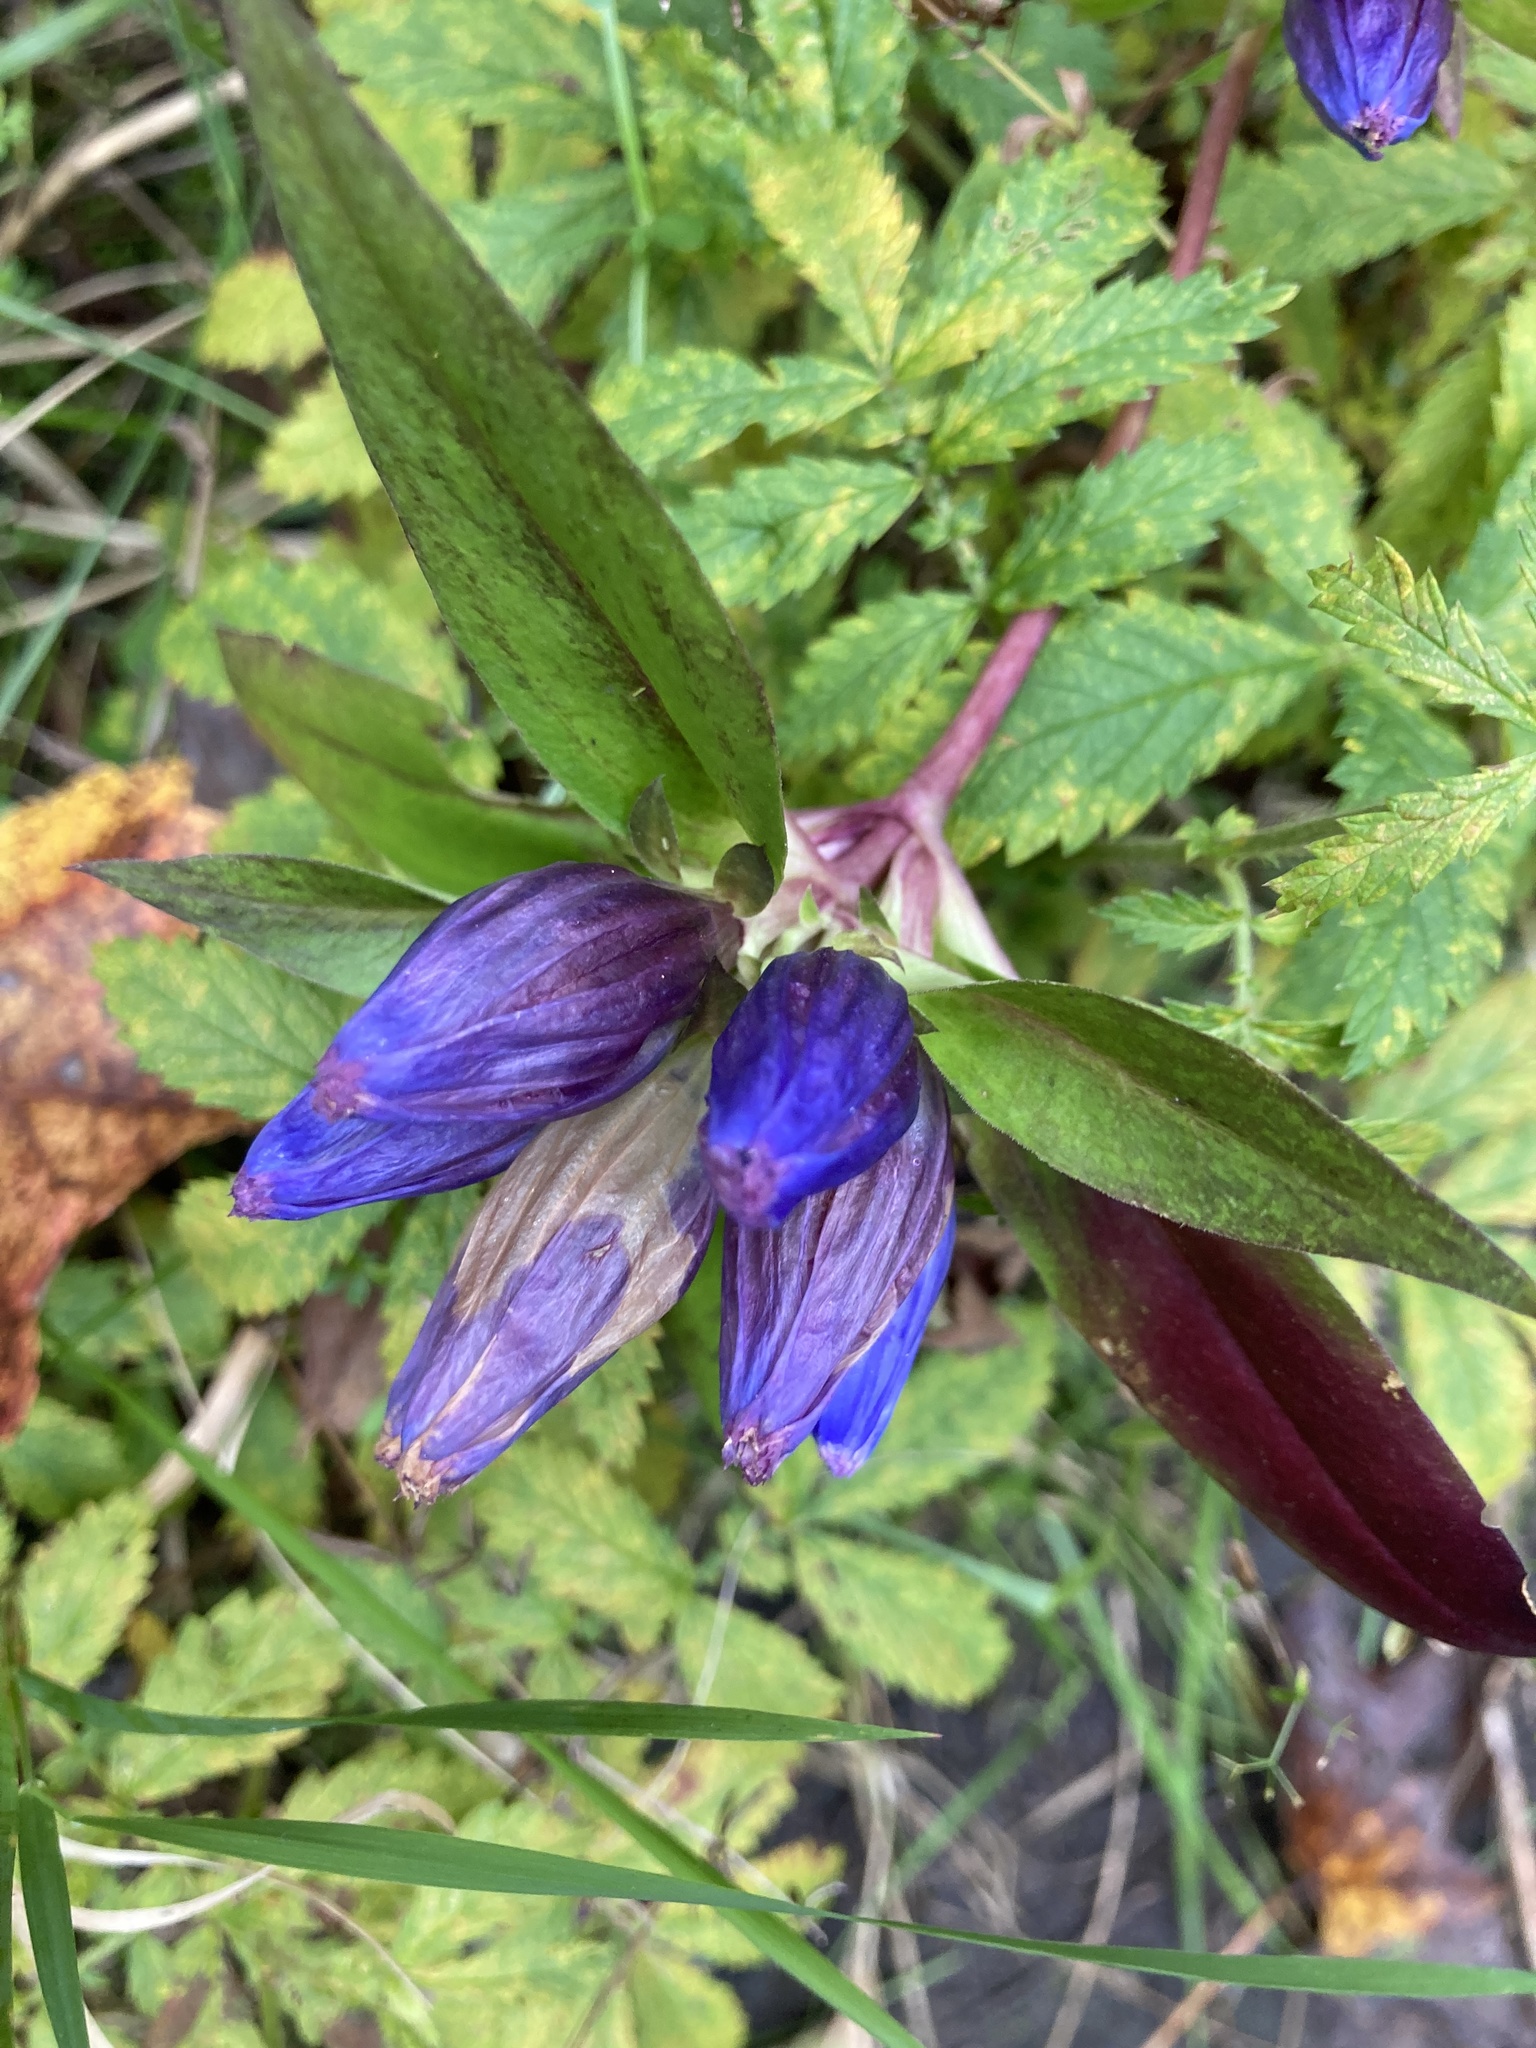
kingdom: Plantae
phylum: Tracheophyta
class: Magnoliopsida
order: Gentianales
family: Gentianaceae
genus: Gentiana
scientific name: Gentiana andrewsii
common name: Bottle gentian
